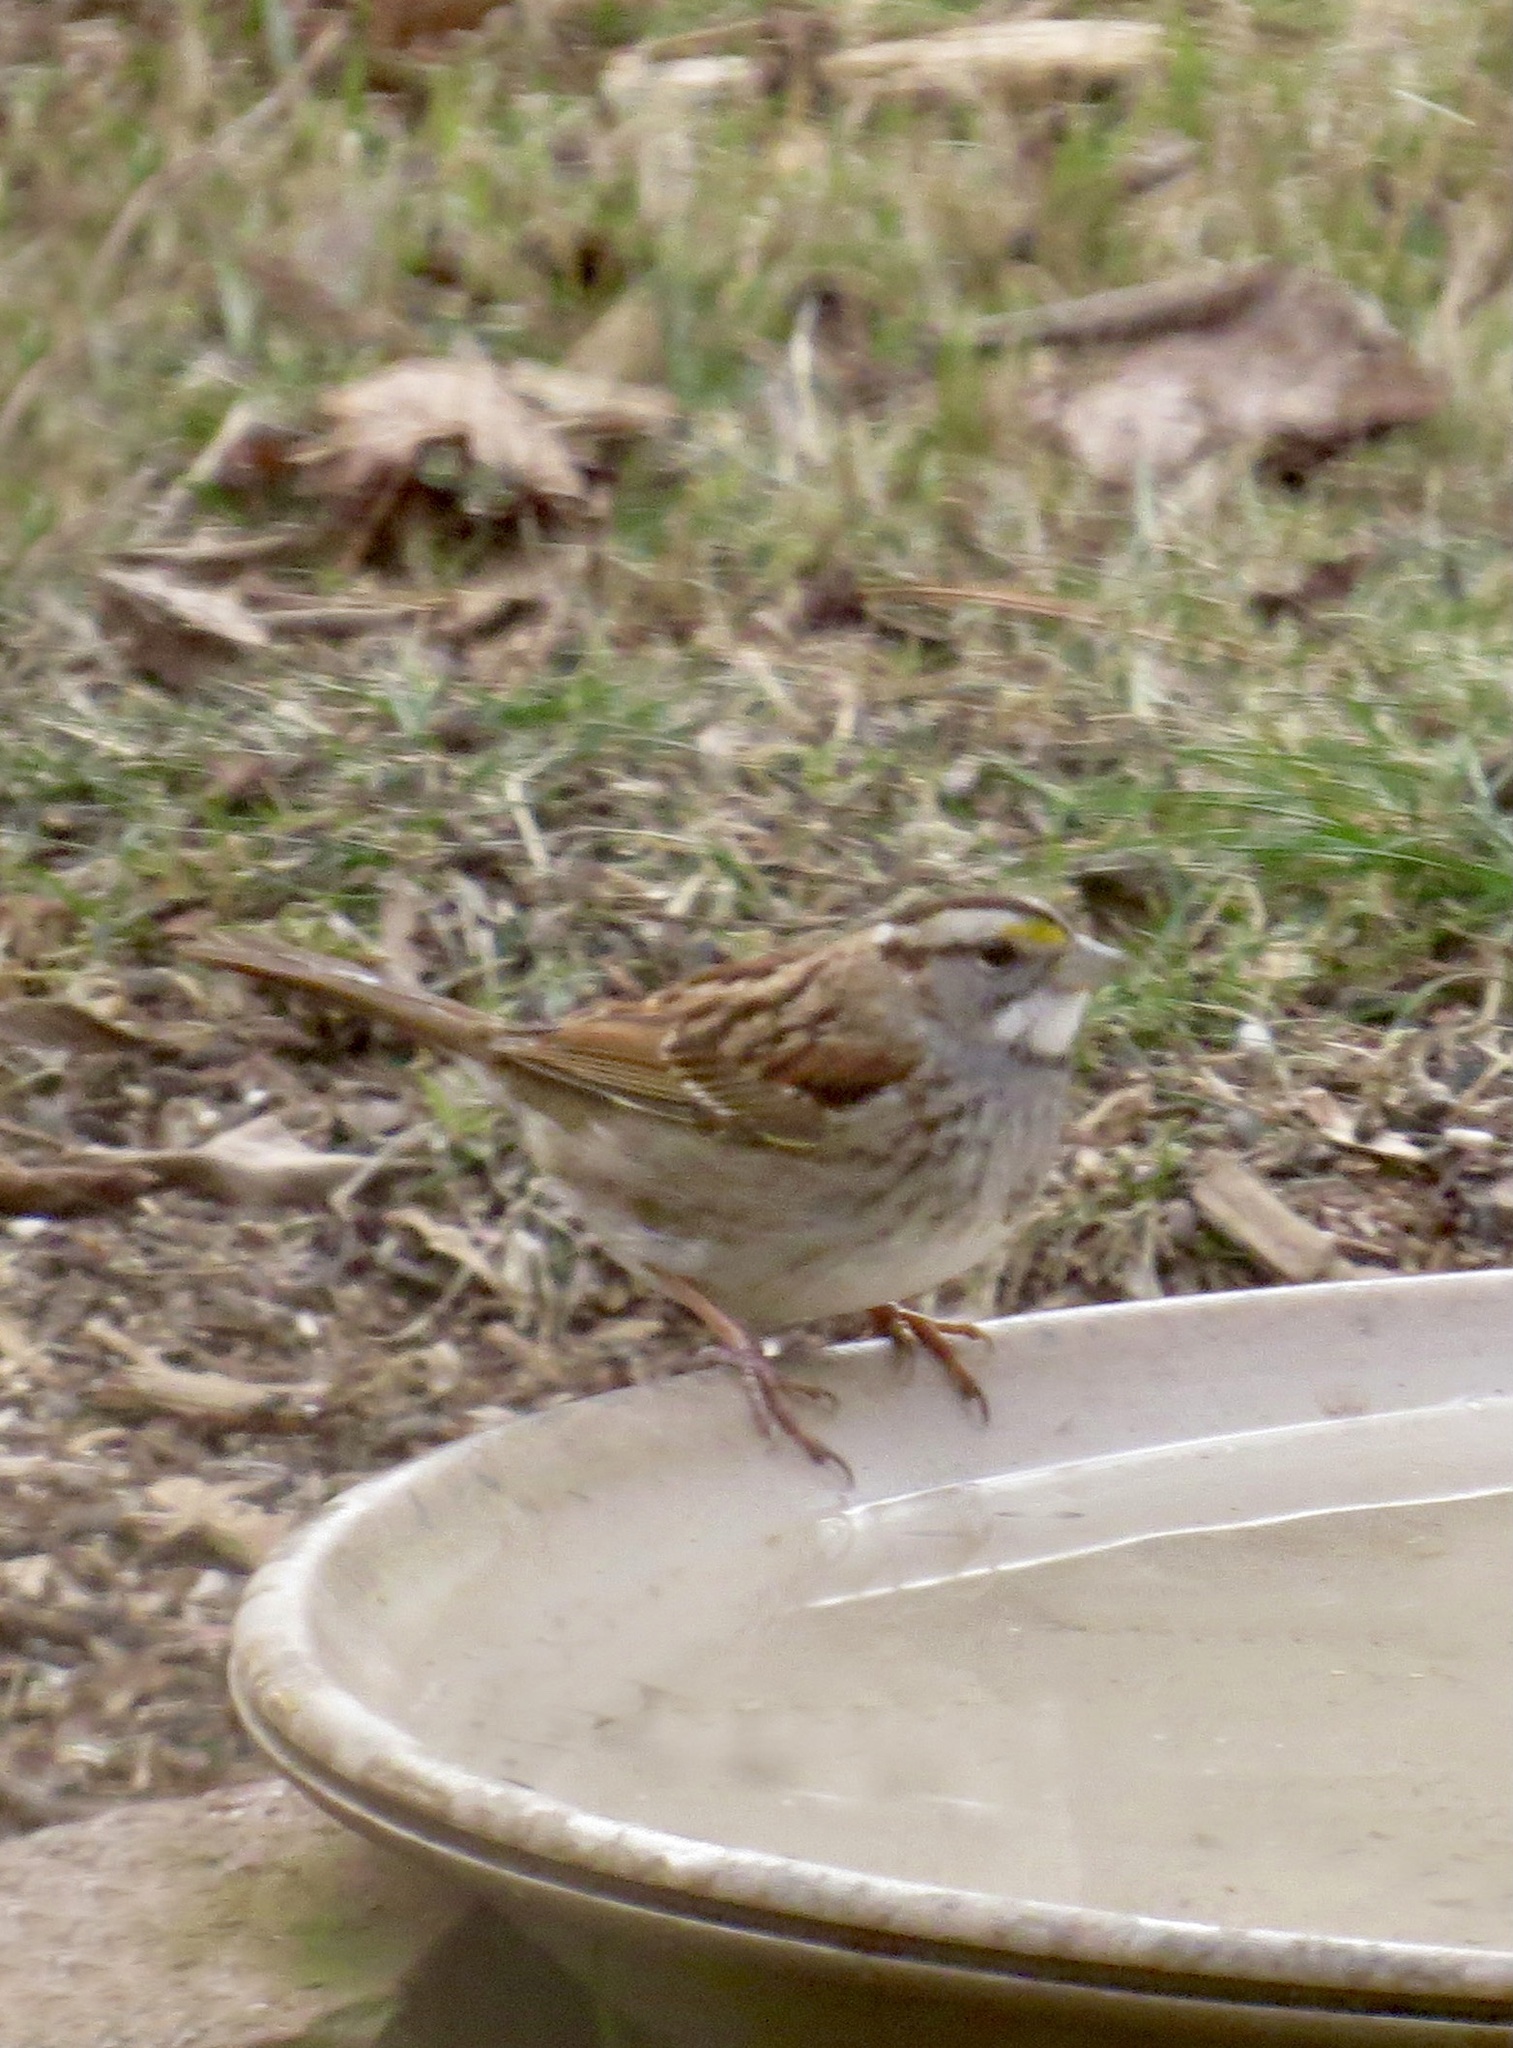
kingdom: Animalia
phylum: Chordata
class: Aves
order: Passeriformes
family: Passerellidae
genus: Zonotrichia
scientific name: Zonotrichia albicollis
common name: White-throated sparrow
